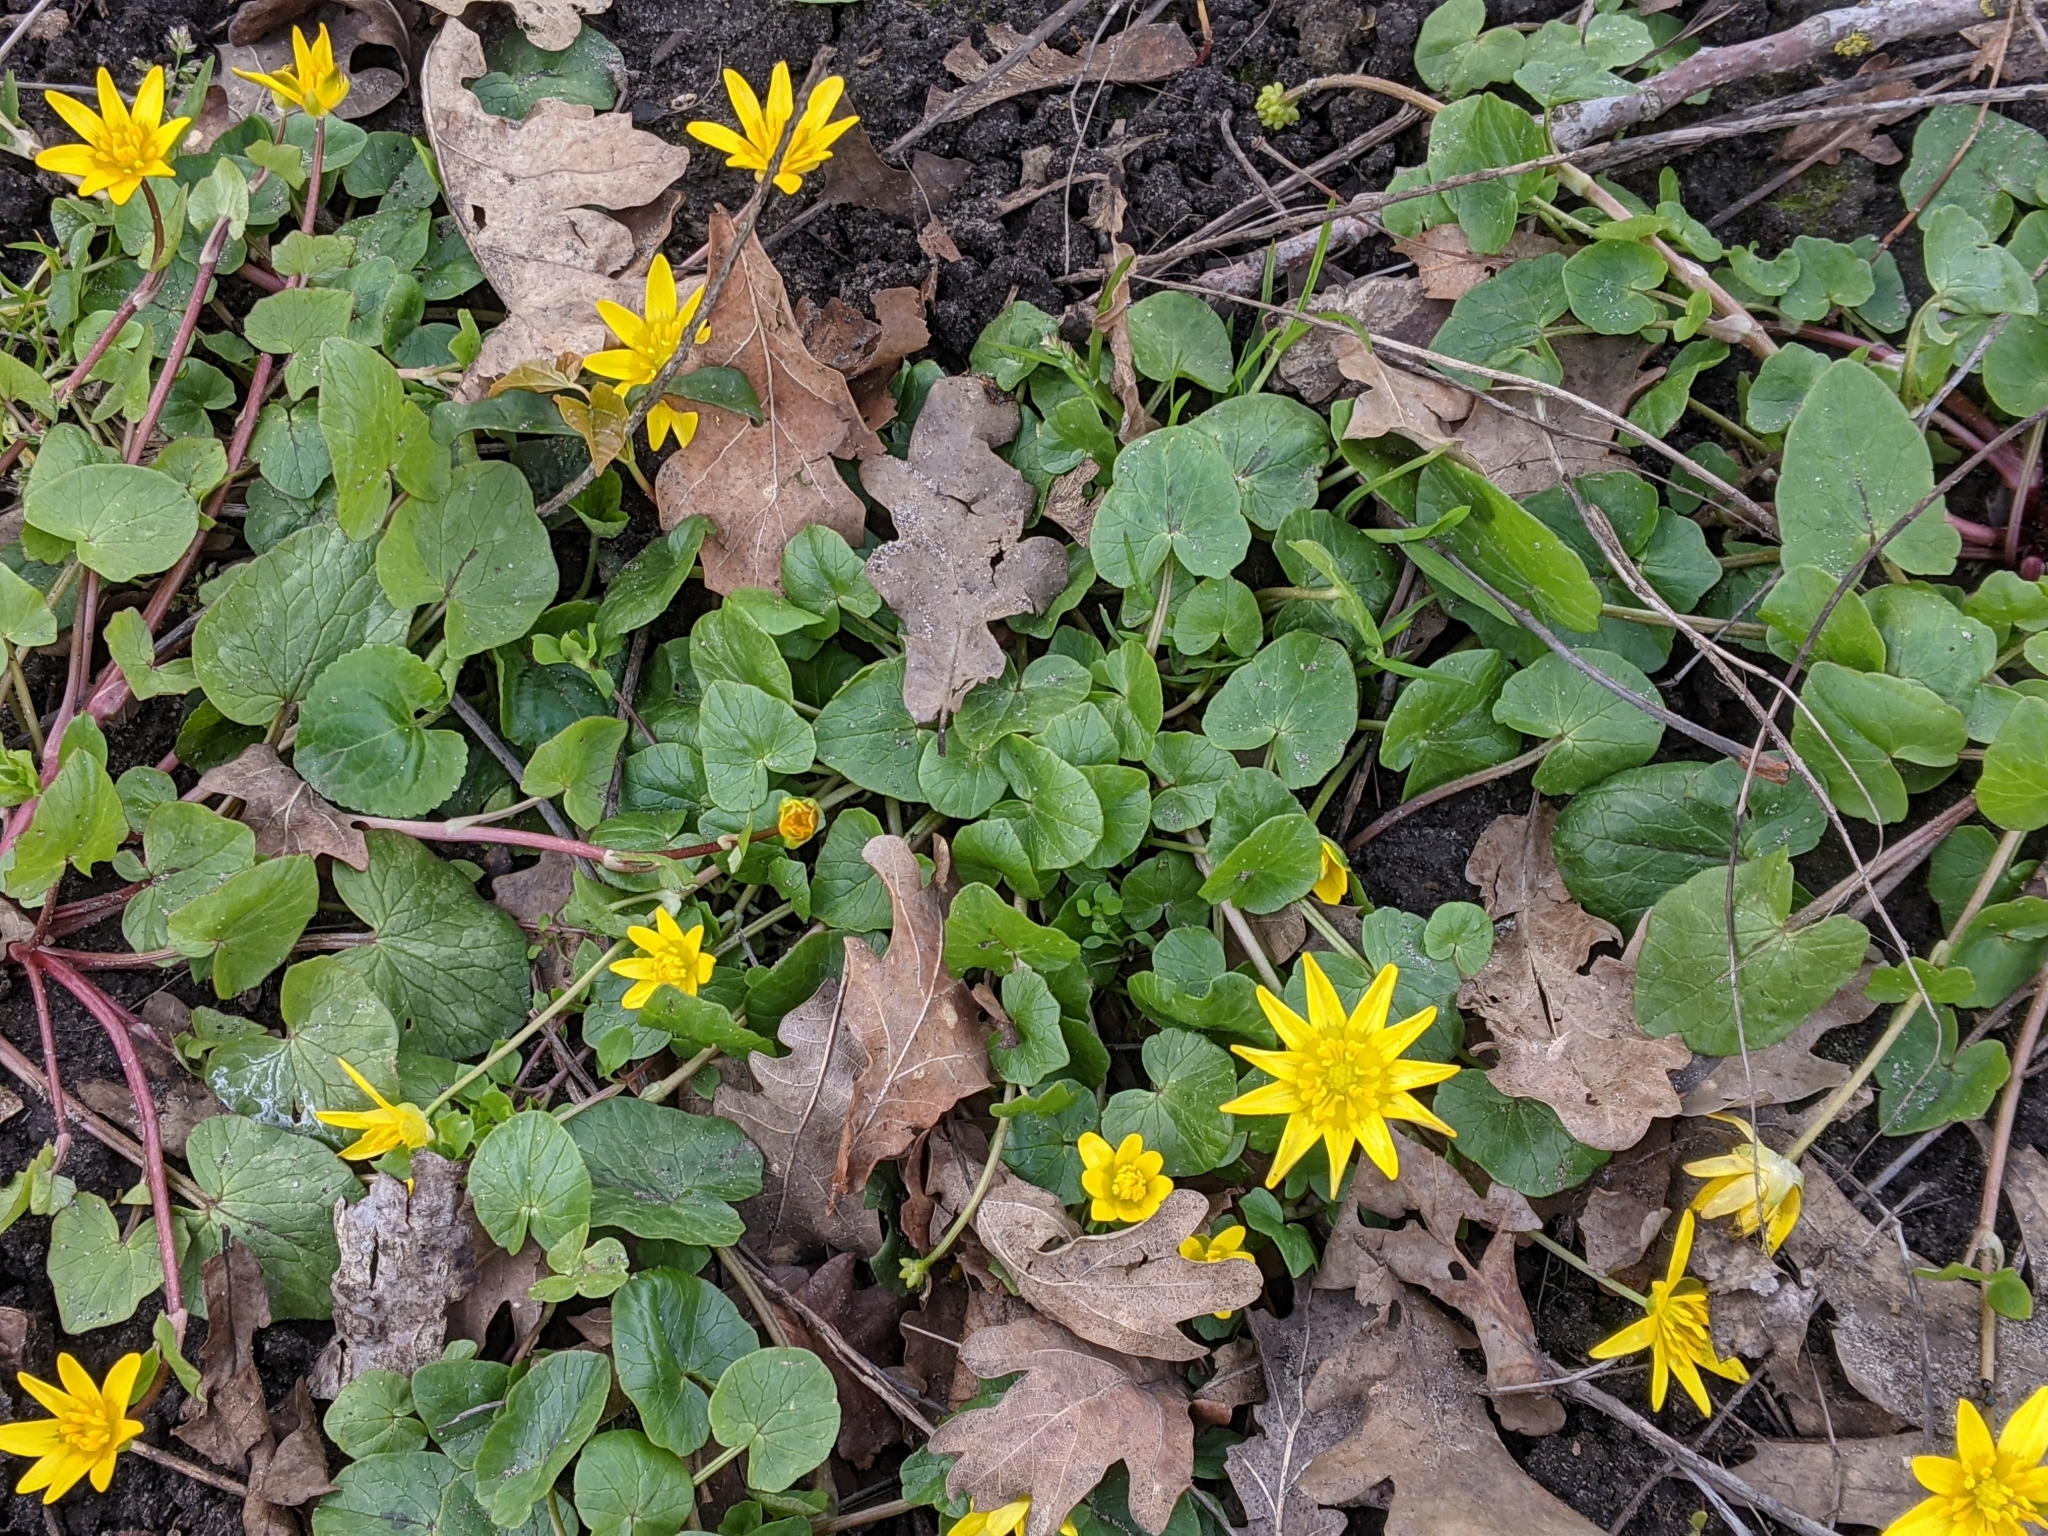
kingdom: Plantae
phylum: Tracheophyta
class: Magnoliopsida
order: Ranunculales
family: Ranunculaceae
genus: Ficaria
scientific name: Ficaria verna
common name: Lesser celandine
